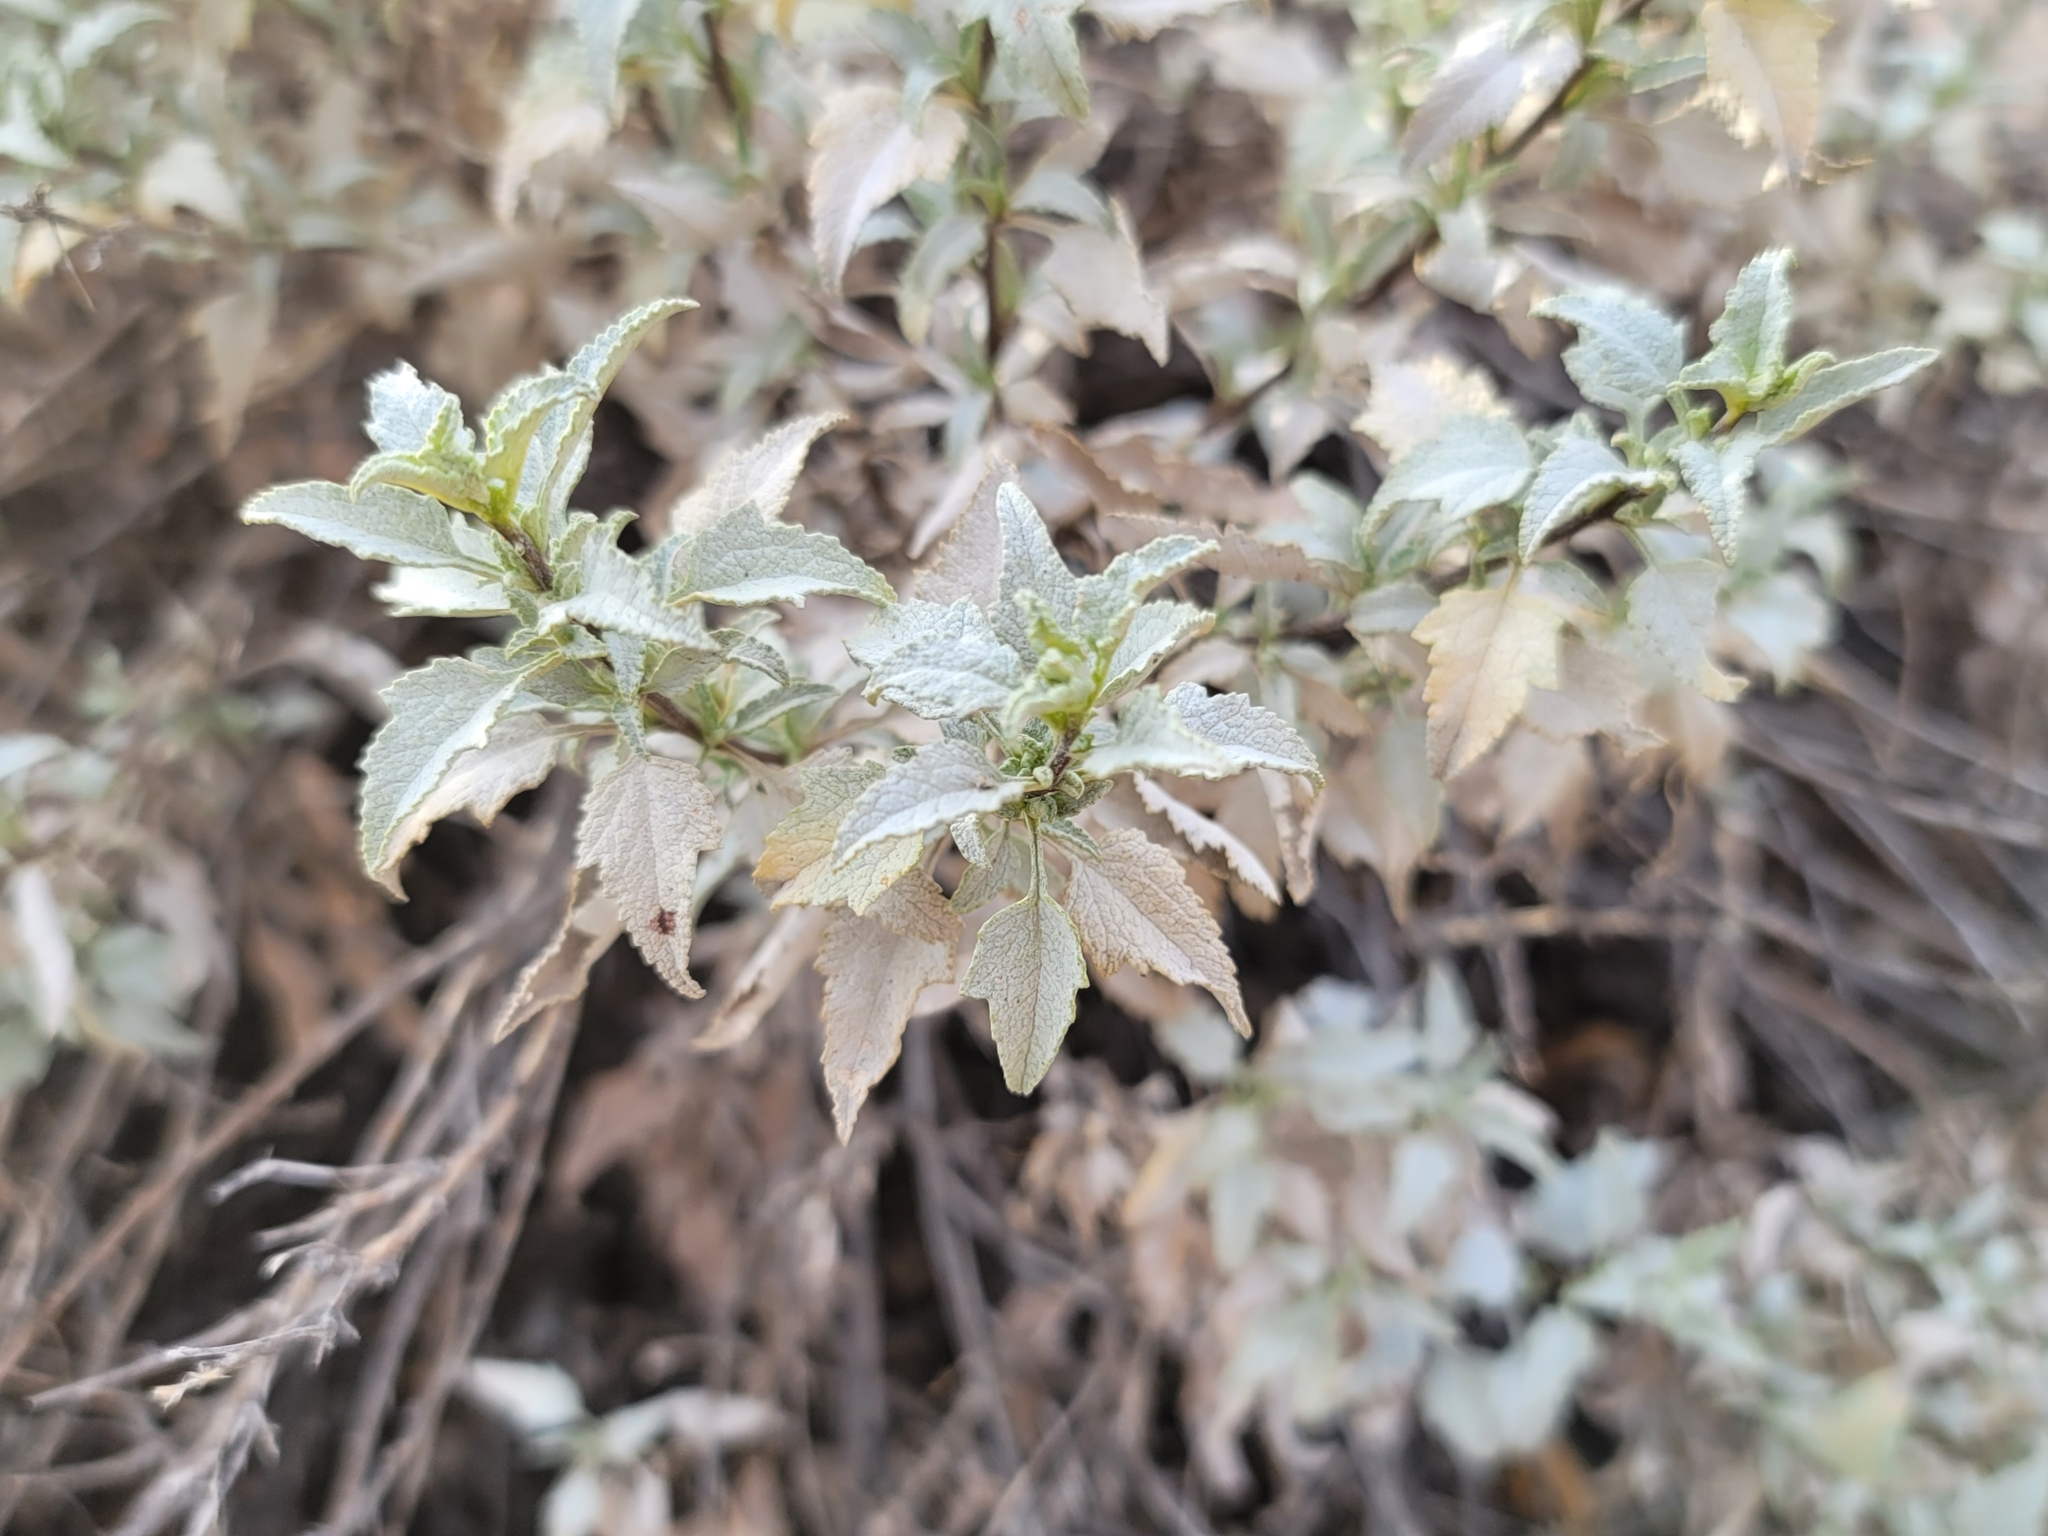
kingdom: Plantae
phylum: Tracheophyta
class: Magnoliopsida
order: Asterales
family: Asteraceae
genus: Ambrosia
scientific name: Ambrosia deltoidea
